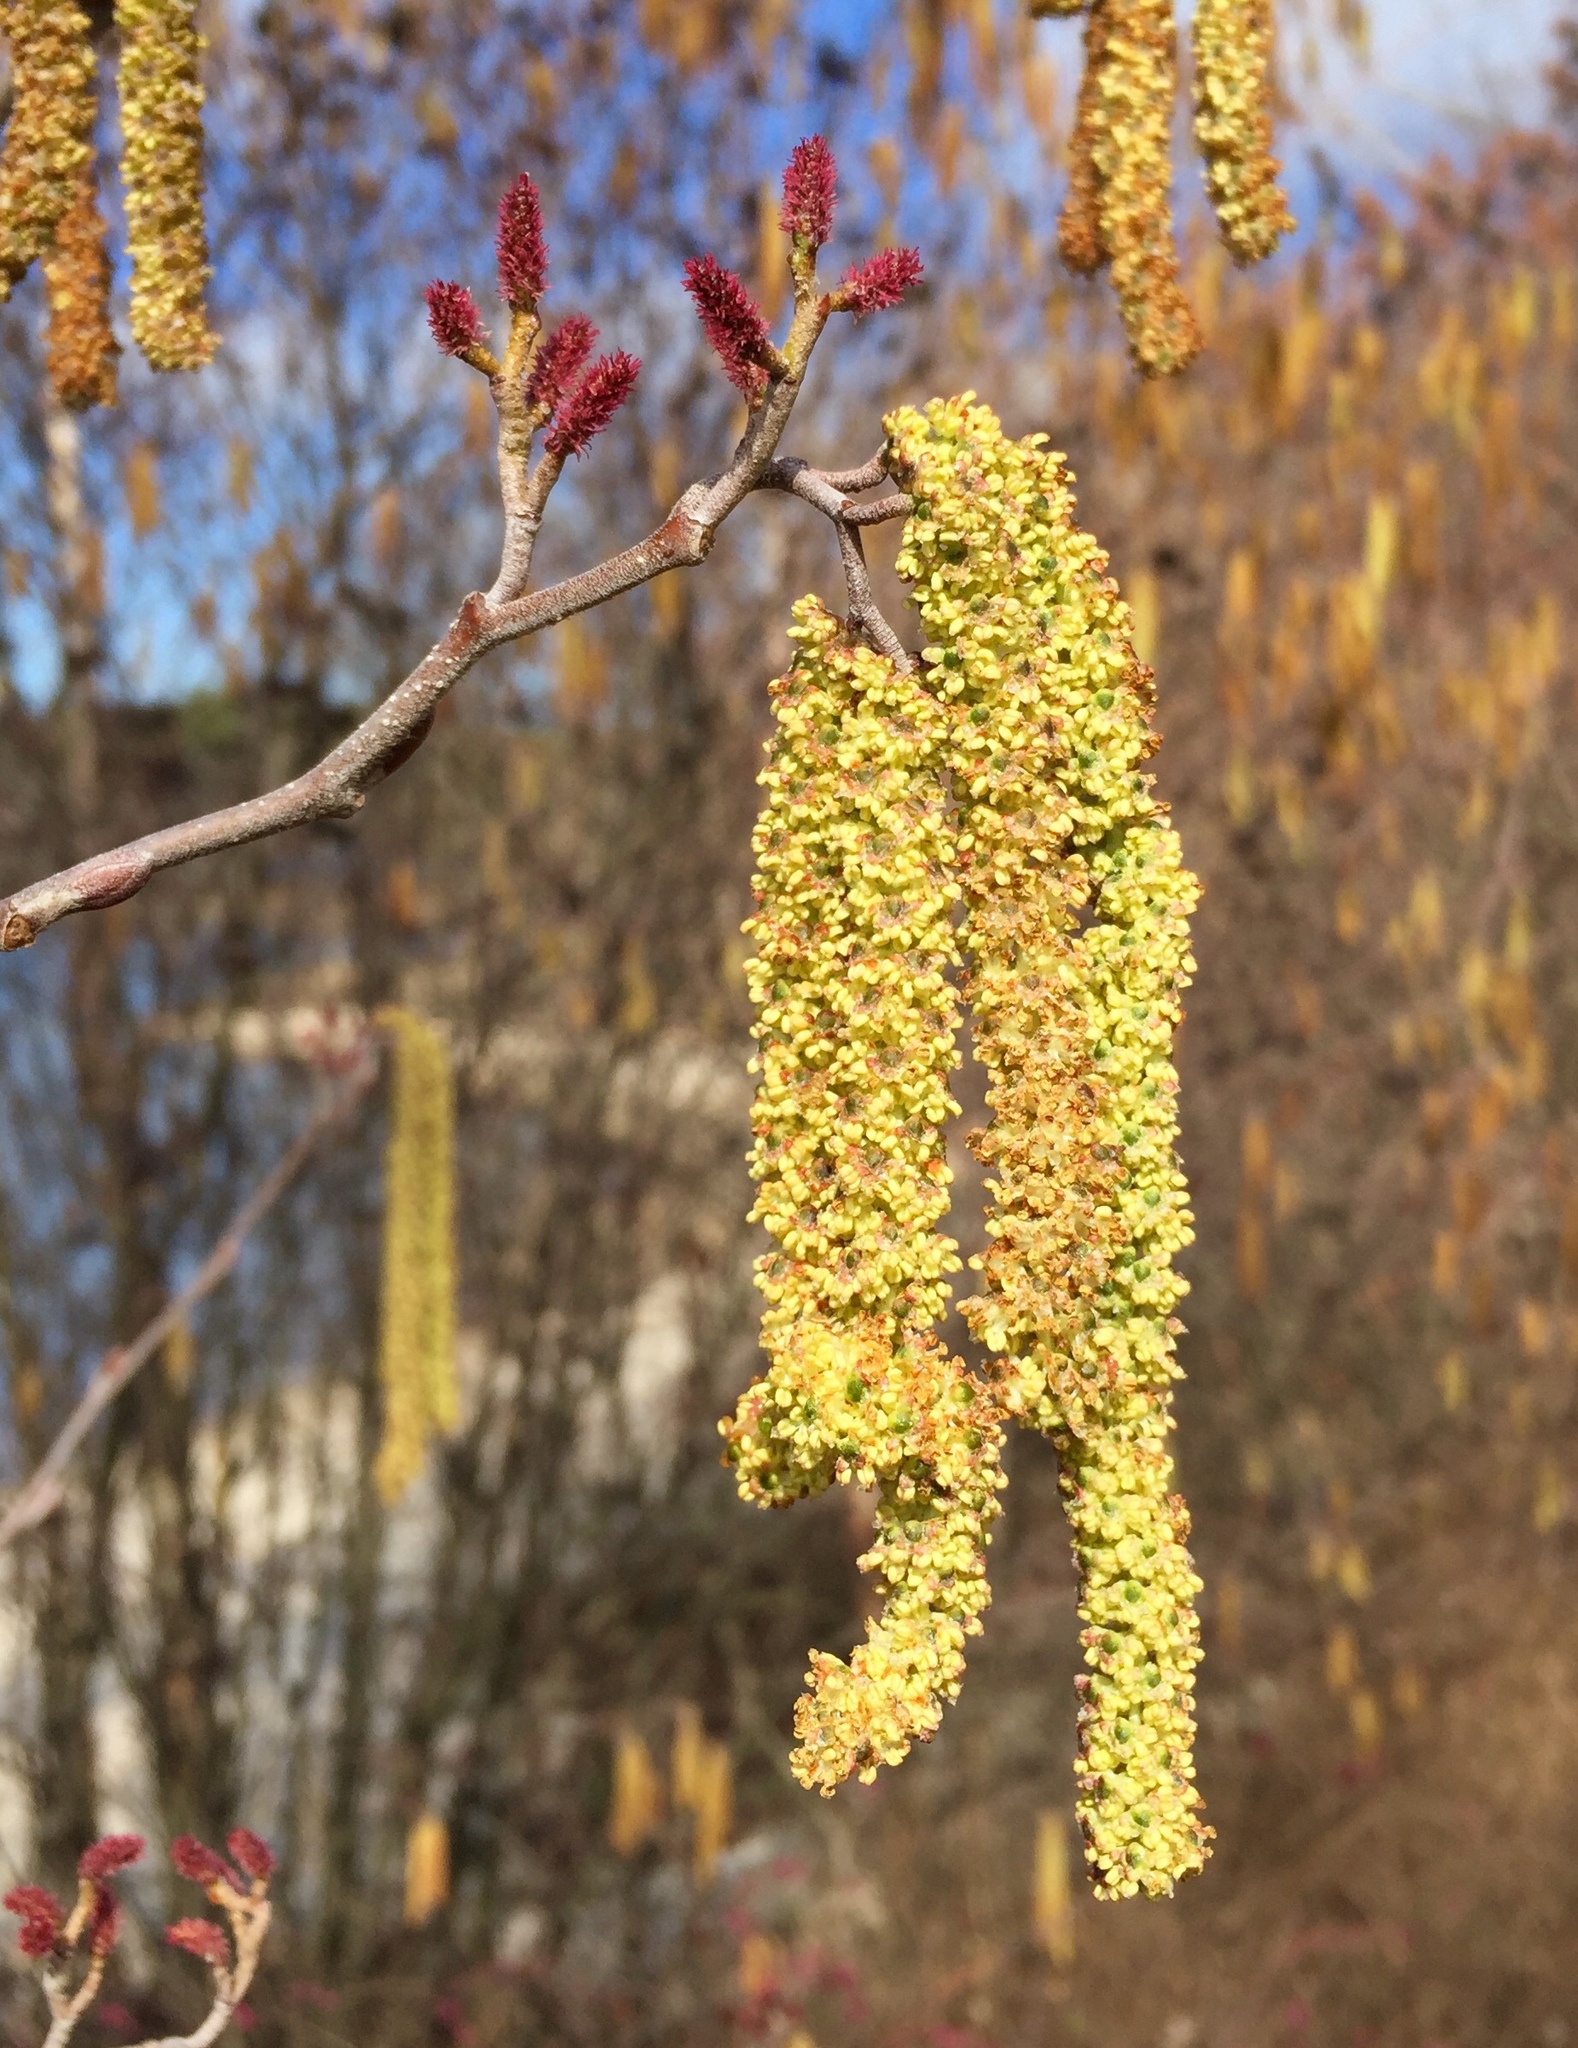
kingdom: Plantae
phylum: Tracheophyta
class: Magnoliopsida
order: Fagales
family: Betulaceae
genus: Alnus
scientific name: Alnus serrulata
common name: Hazel alder
